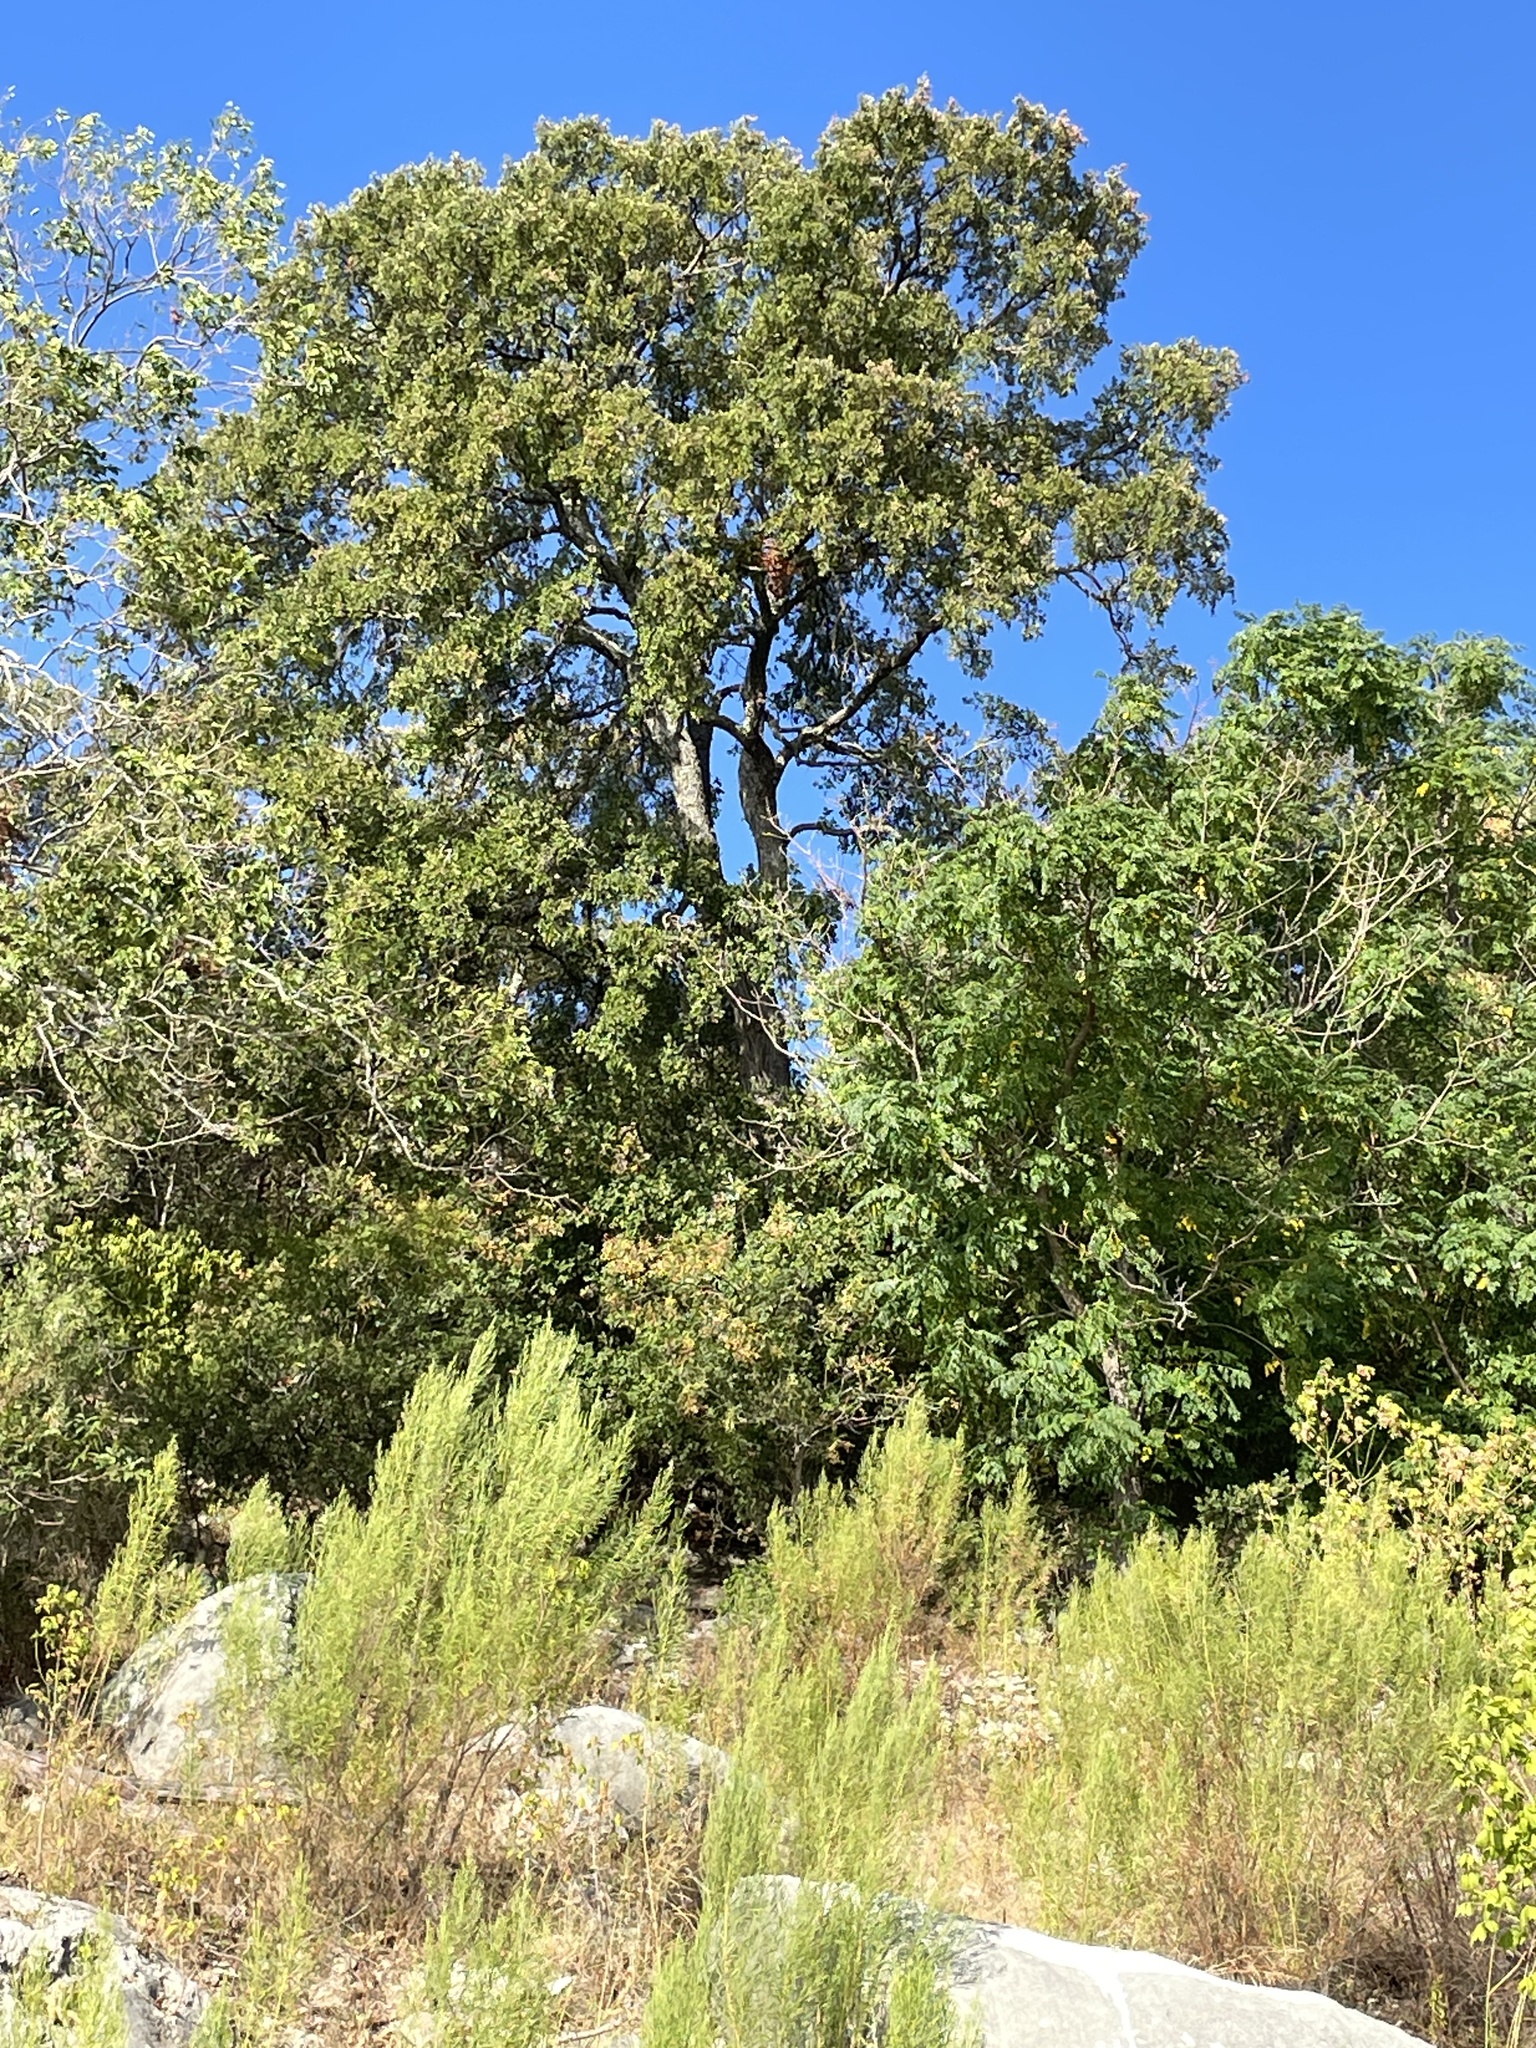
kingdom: Plantae
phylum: Tracheophyta
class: Magnoliopsida
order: Rosales
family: Ulmaceae
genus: Ulmus
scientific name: Ulmus crassifolia
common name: Basket elm
